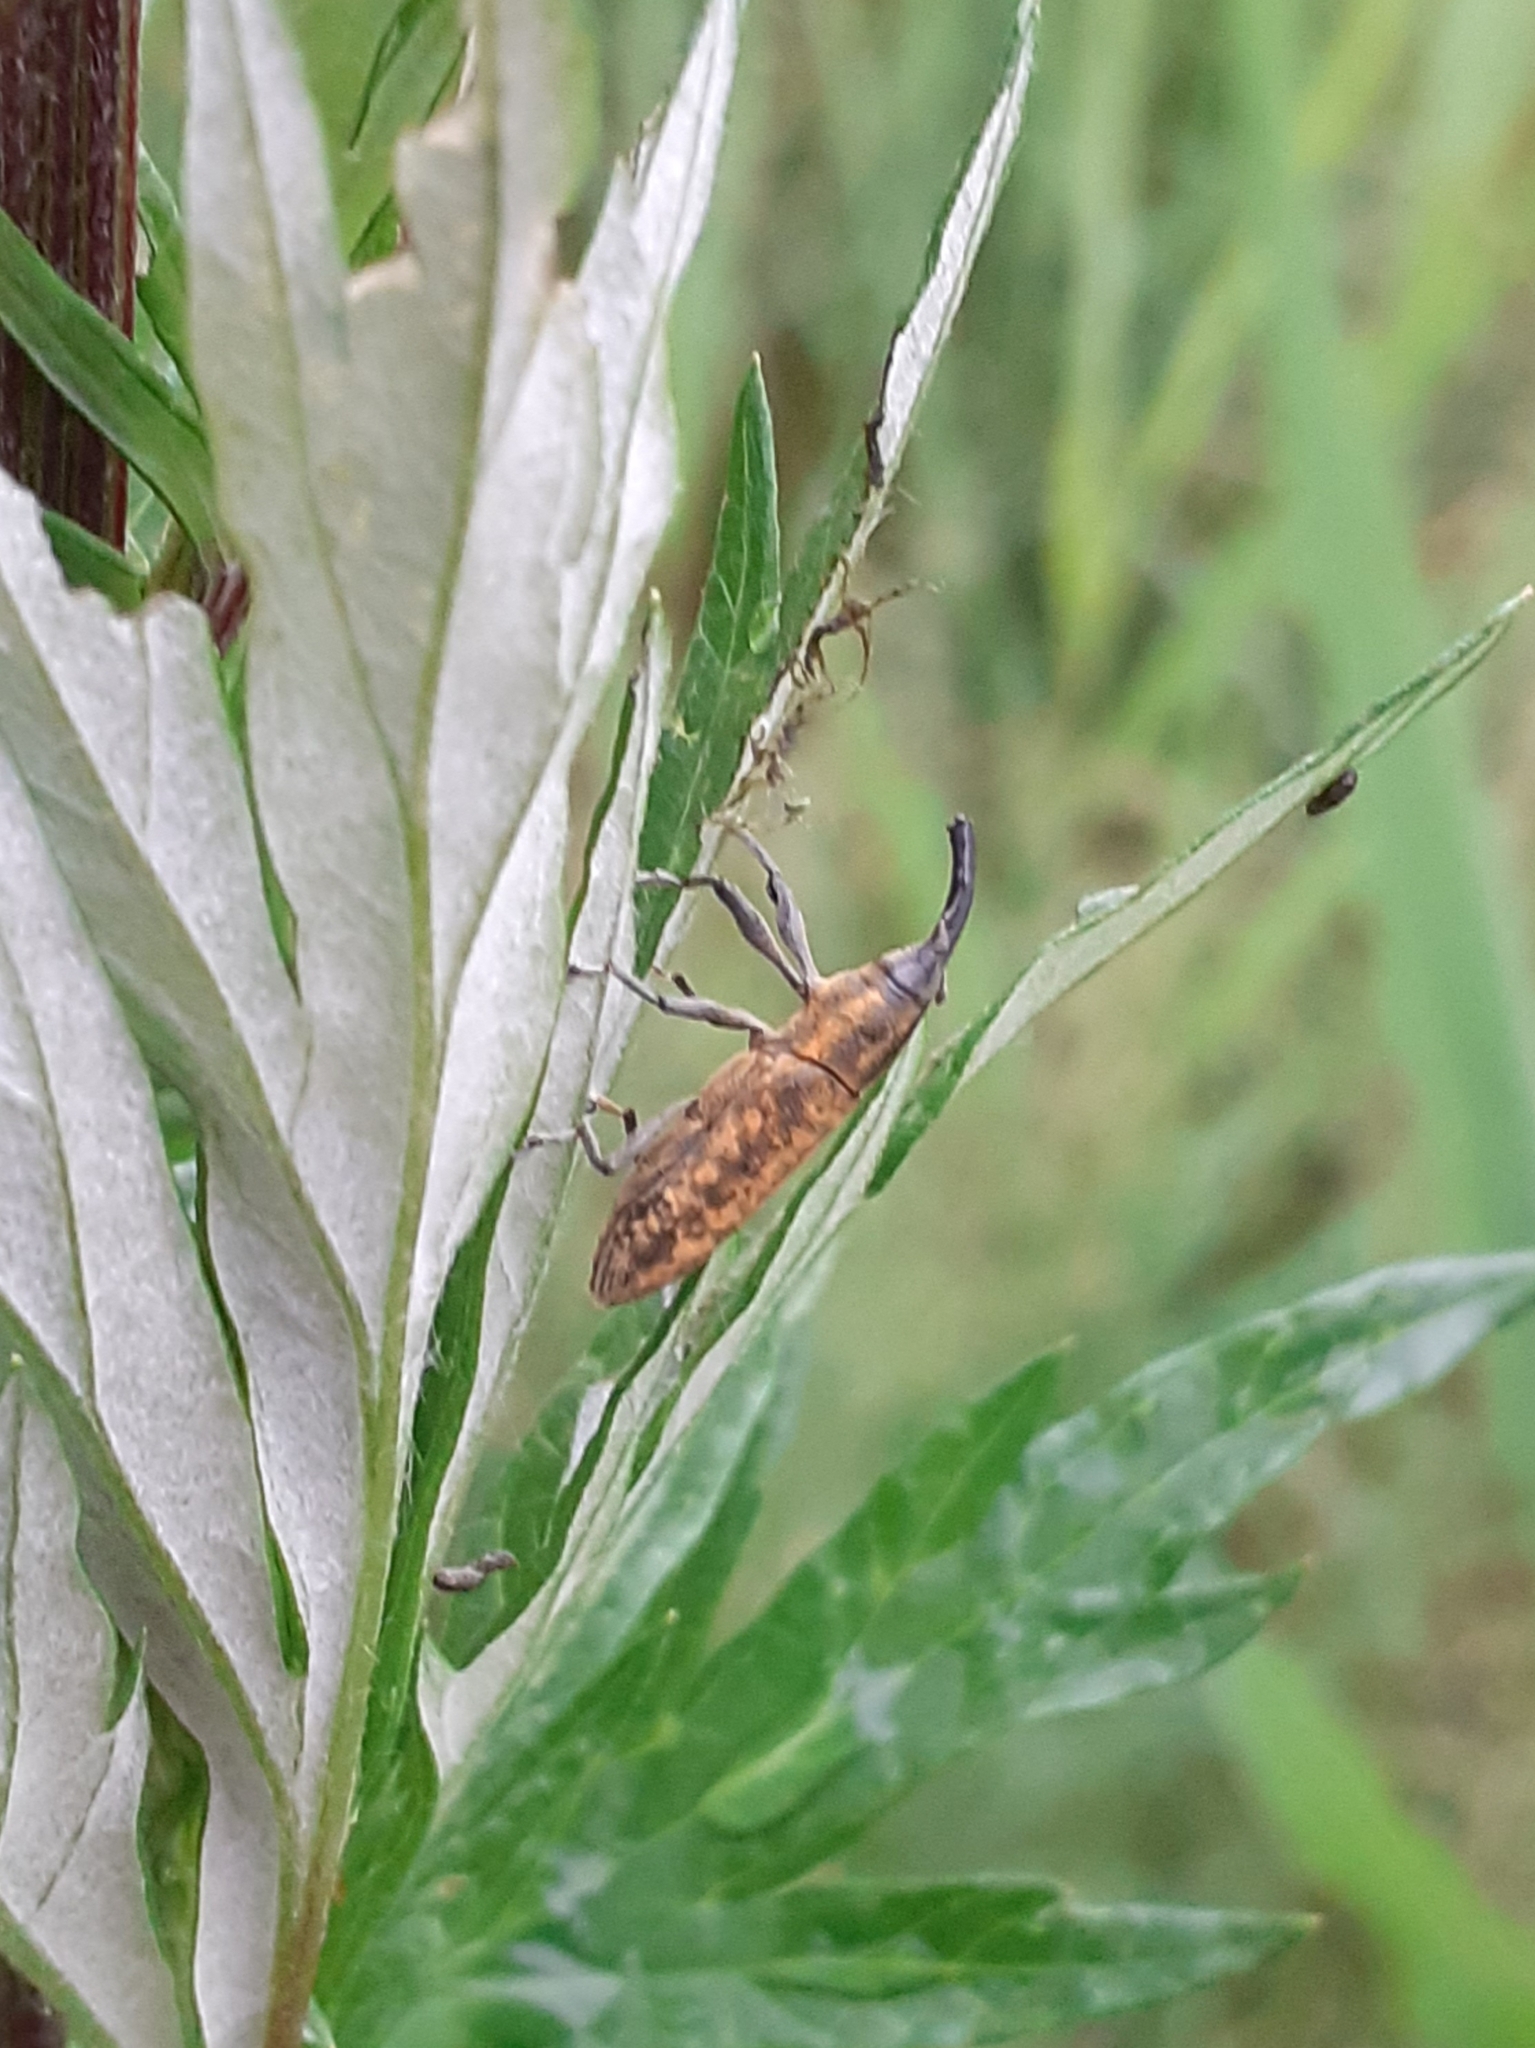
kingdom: Animalia
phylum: Arthropoda
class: Insecta
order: Coleoptera
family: Curculionidae
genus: Lixus
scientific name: Lixus fasciculatus
